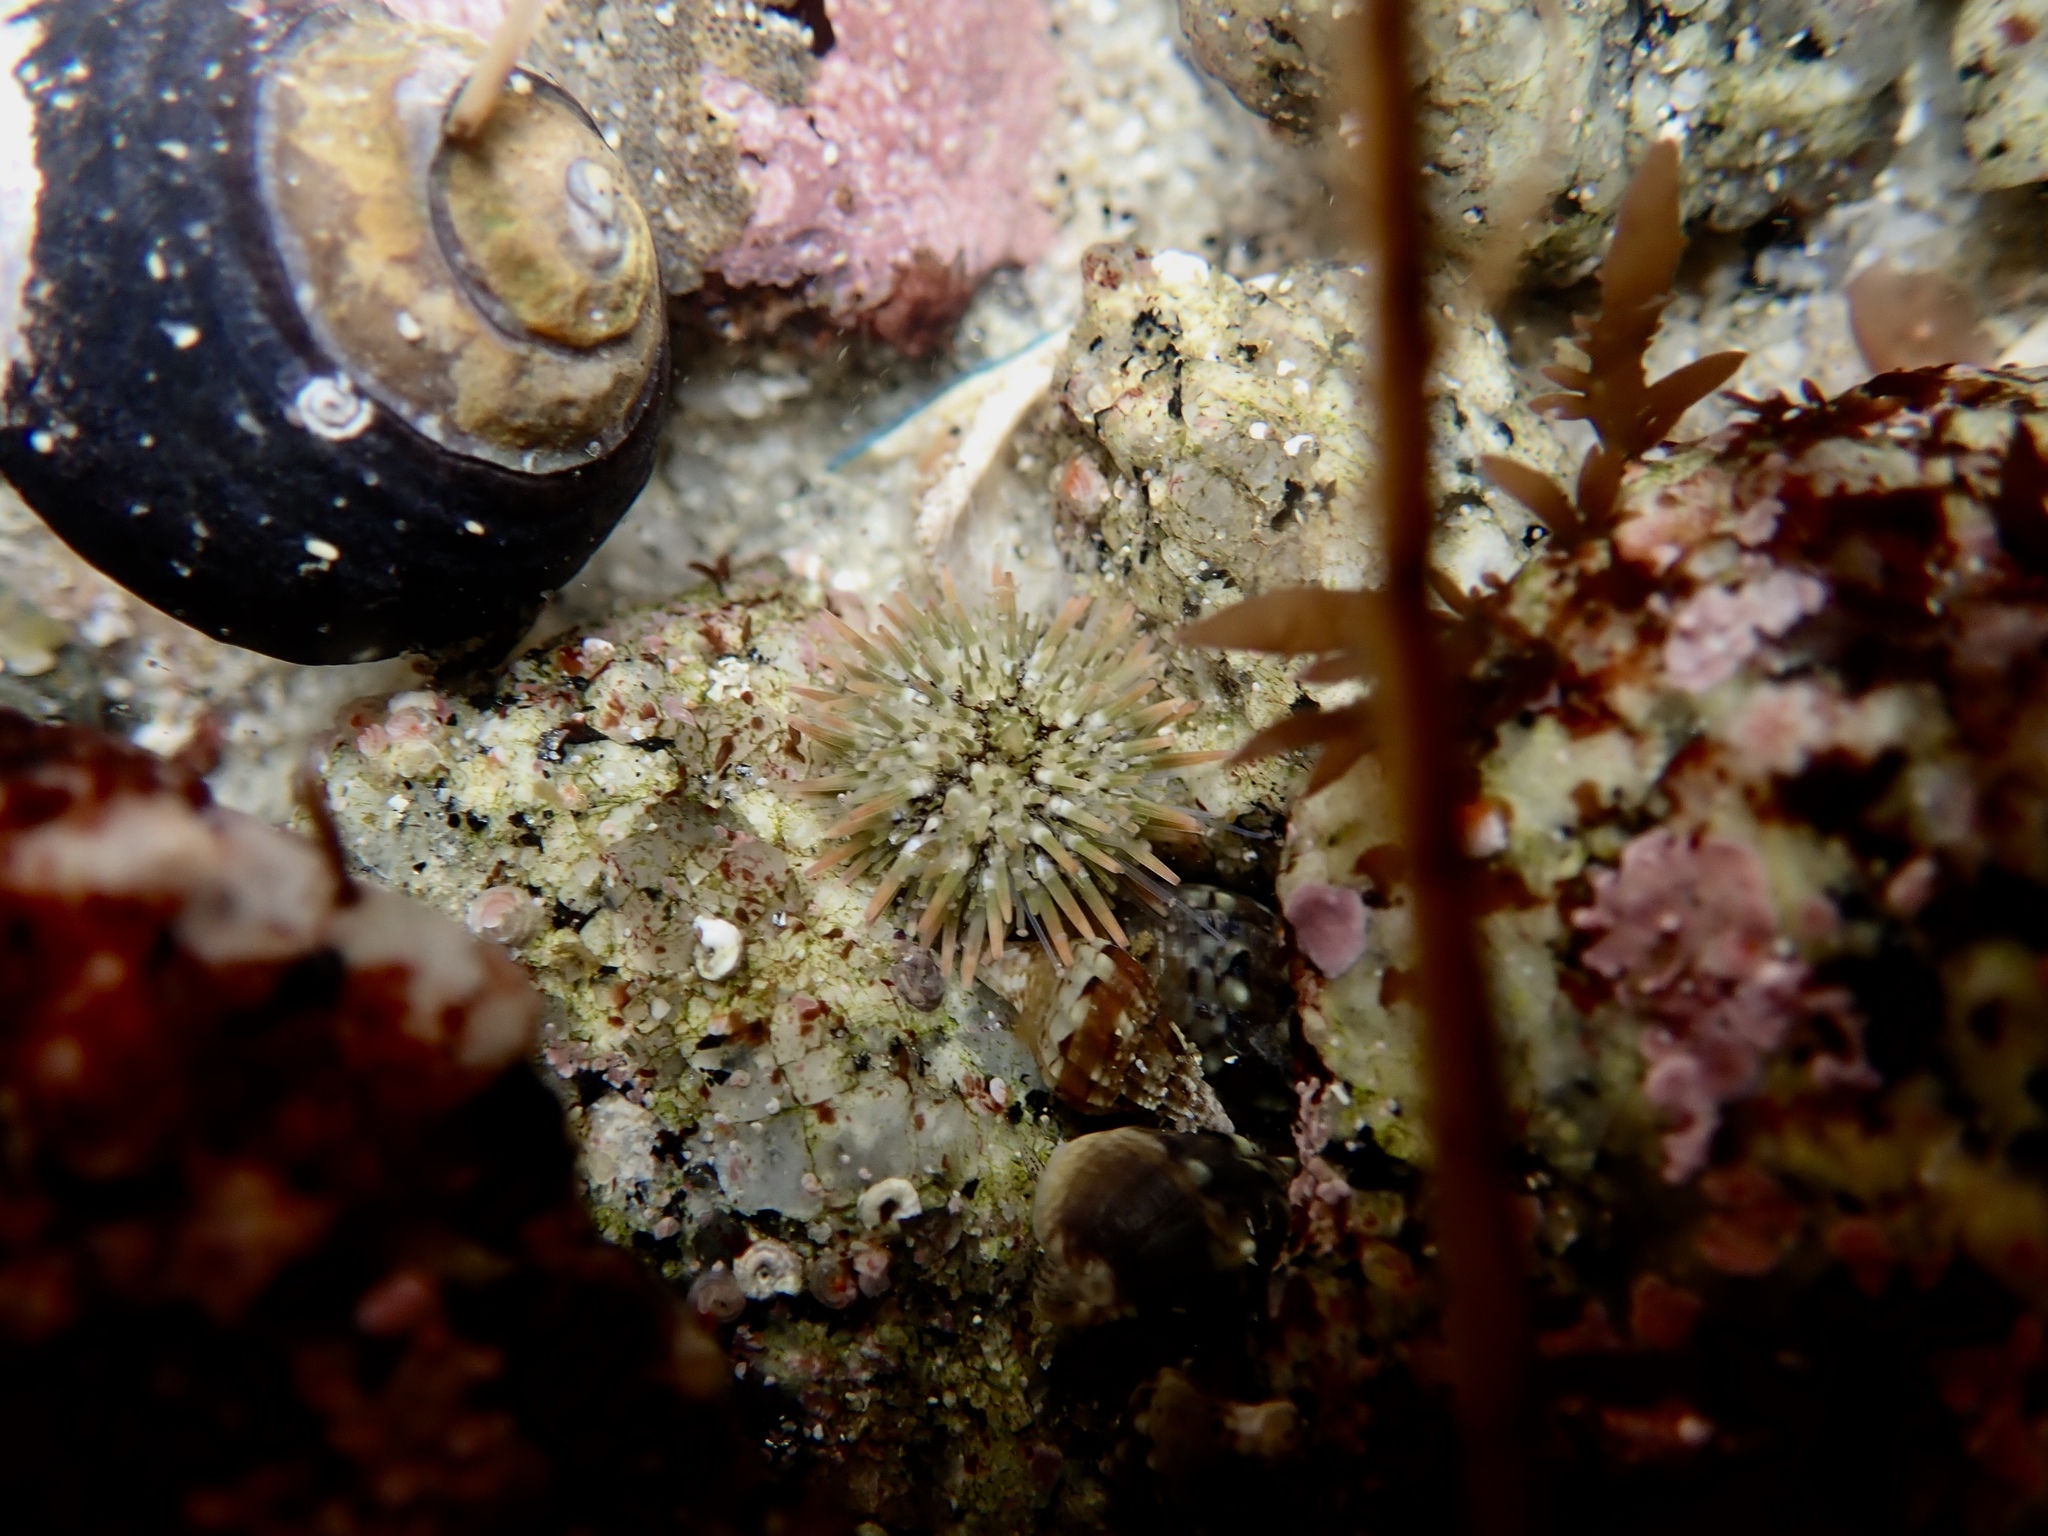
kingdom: Animalia
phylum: Echinodermata
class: Echinoidea
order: Camarodonta
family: Strongylocentrotidae
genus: Strongylocentrotus
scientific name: Strongylocentrotus purpuratus
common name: Purple sea urchin
